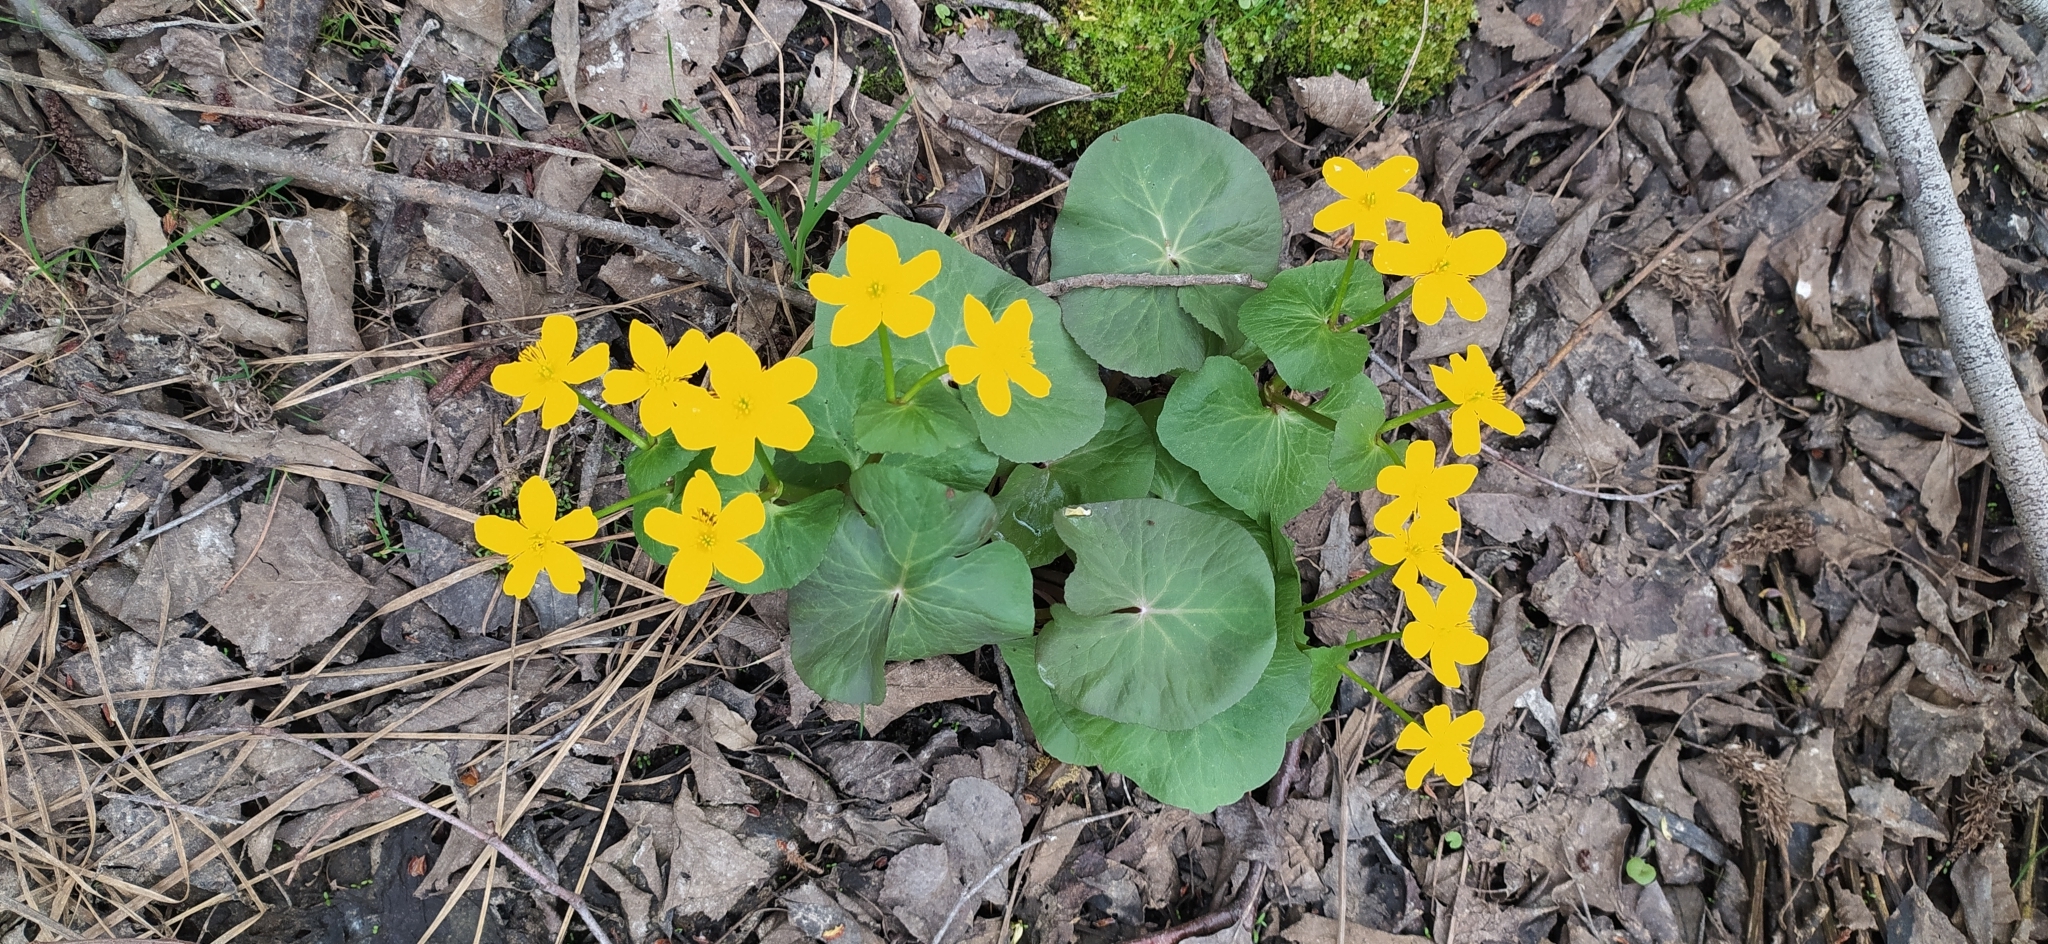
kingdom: Plantae
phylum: Tracheophyta
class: Magnoliopsida
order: Ranunculales
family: Ranunculaceae
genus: Caltha
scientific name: Caltha palustris
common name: Marsh marigold
